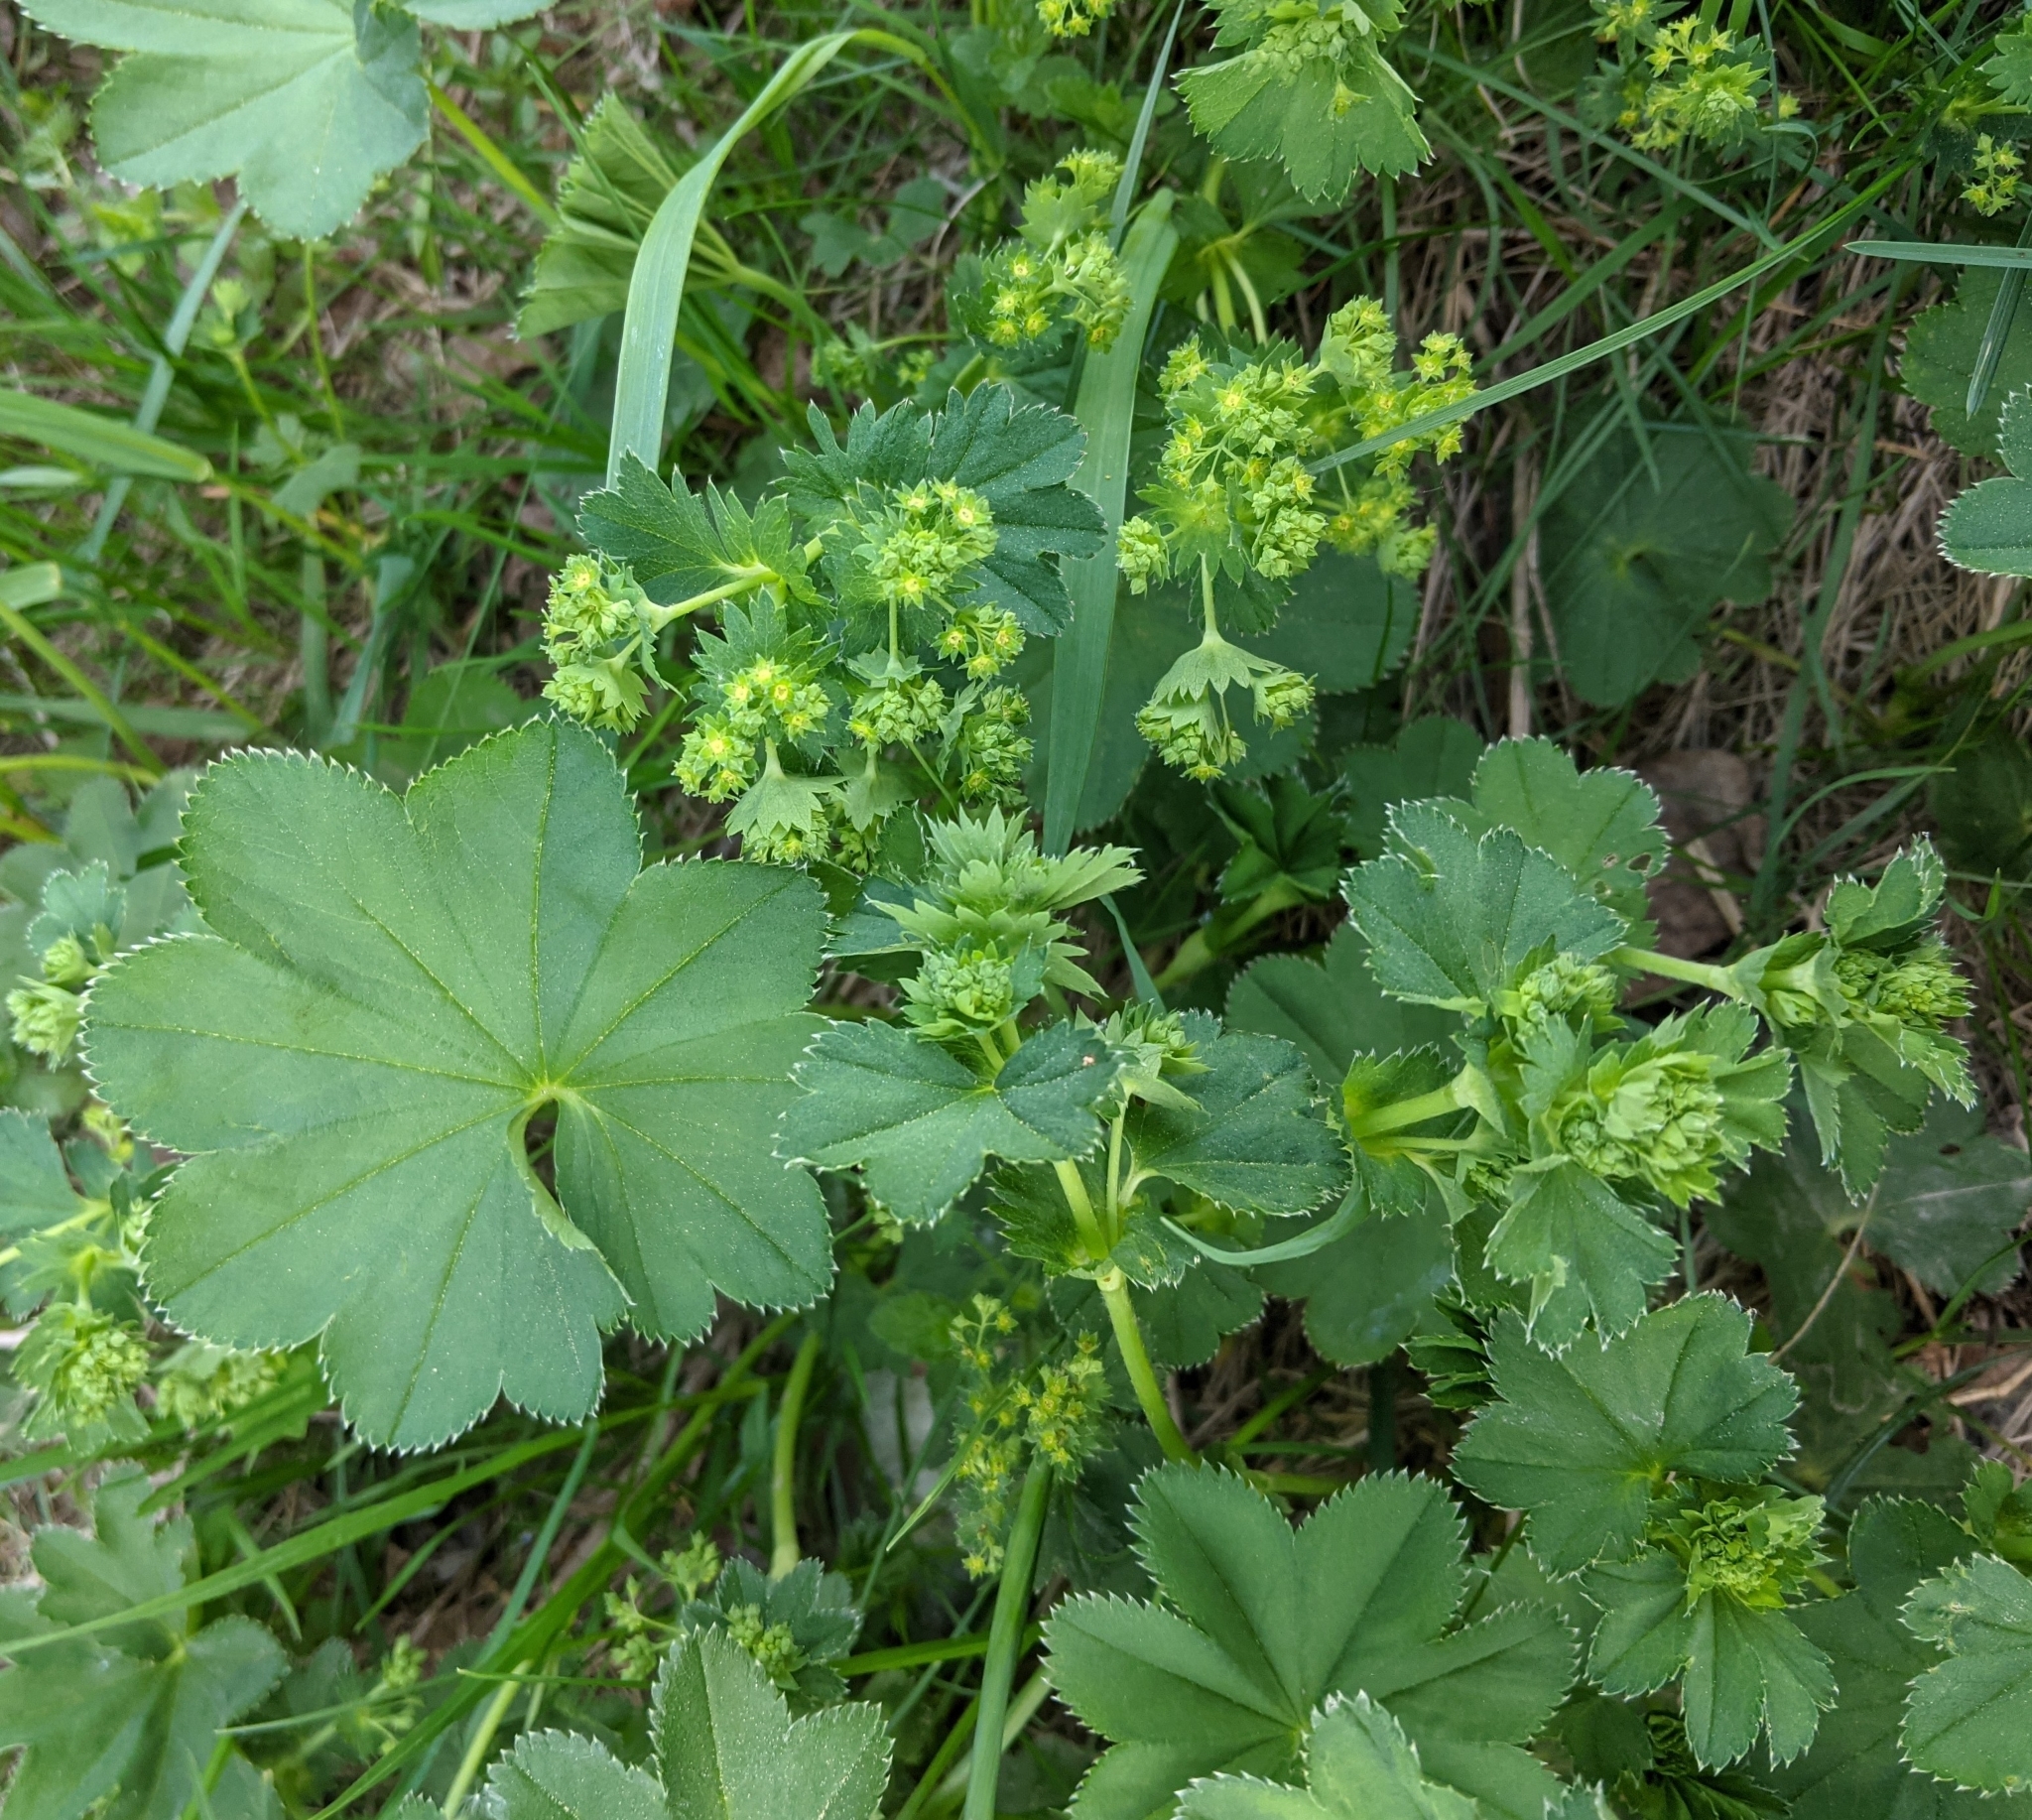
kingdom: Plantae
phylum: Tracheophyta
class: Magnoliopsida
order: Rosales
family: Rosaceae
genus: Alchemilla
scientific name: Alchemilla
